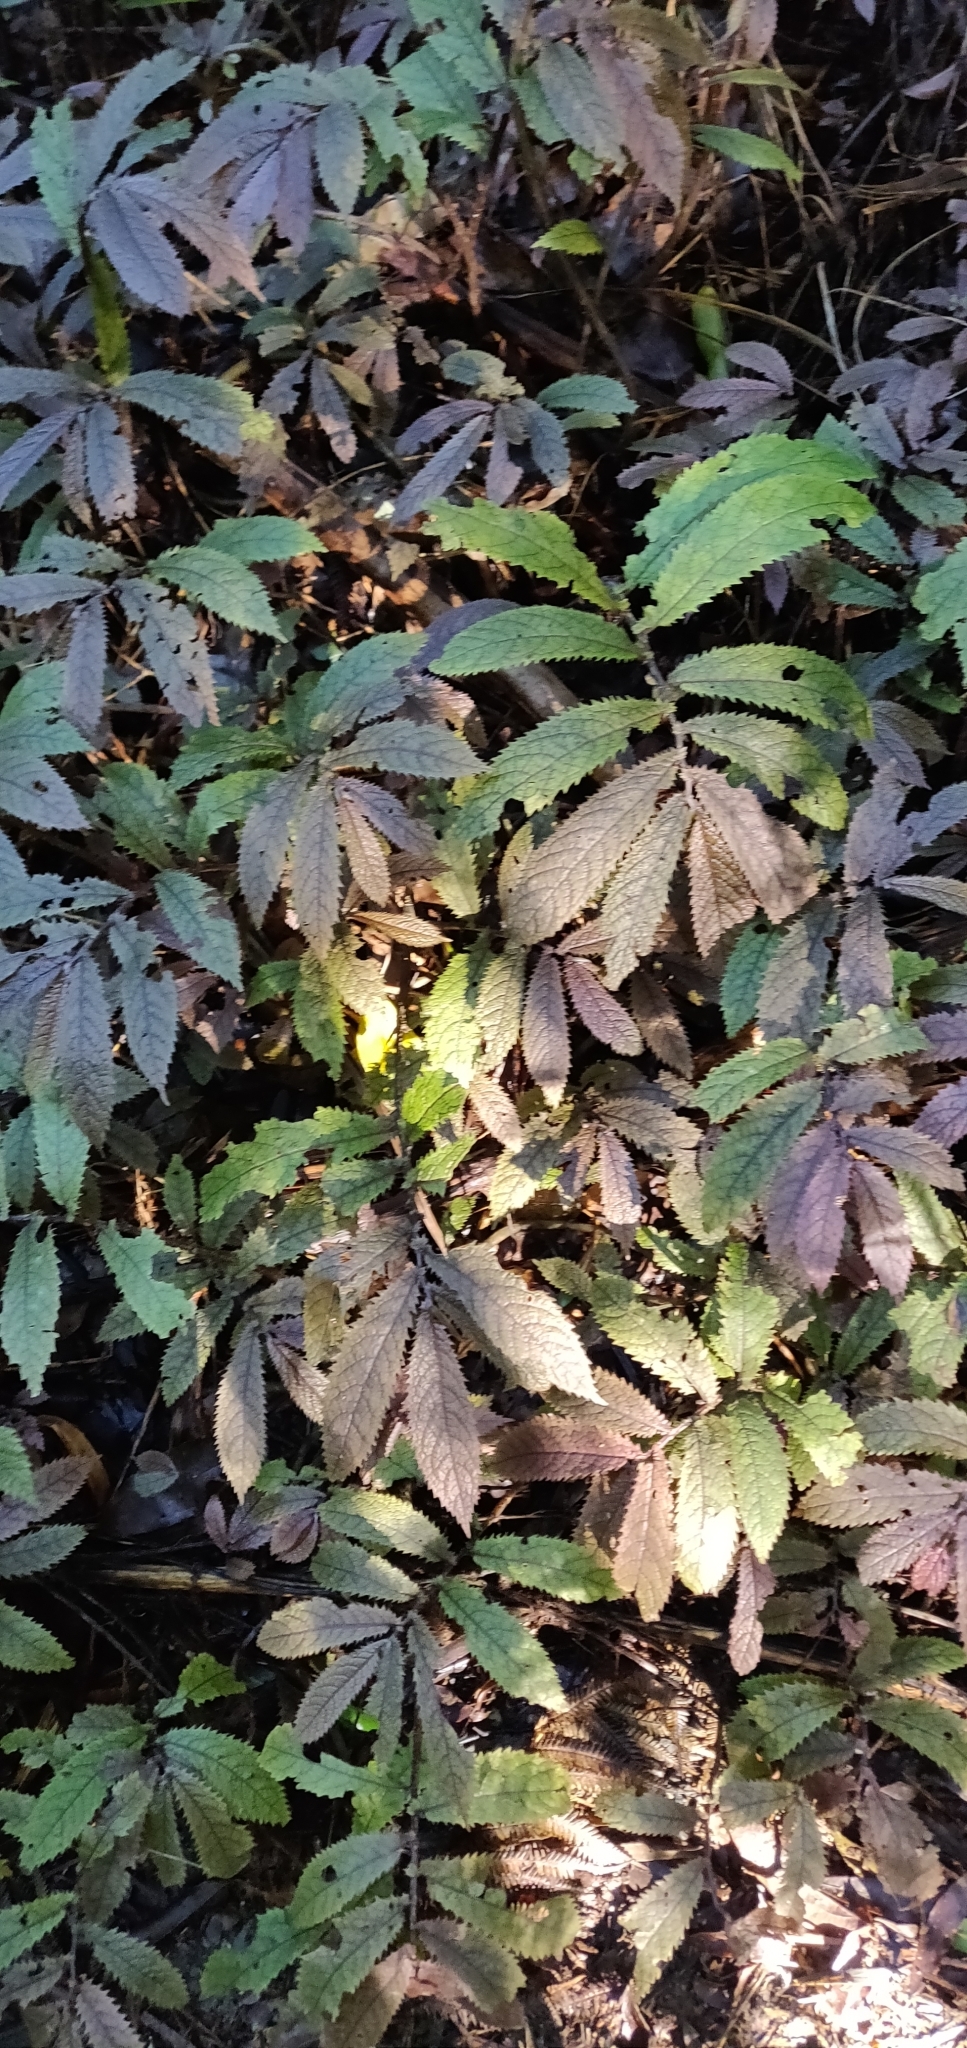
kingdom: Plantae
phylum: Tracheophyta
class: Magnoliopsida
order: Rosales
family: Urticaceae
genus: Elatostema
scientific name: Elatostema rugosum
